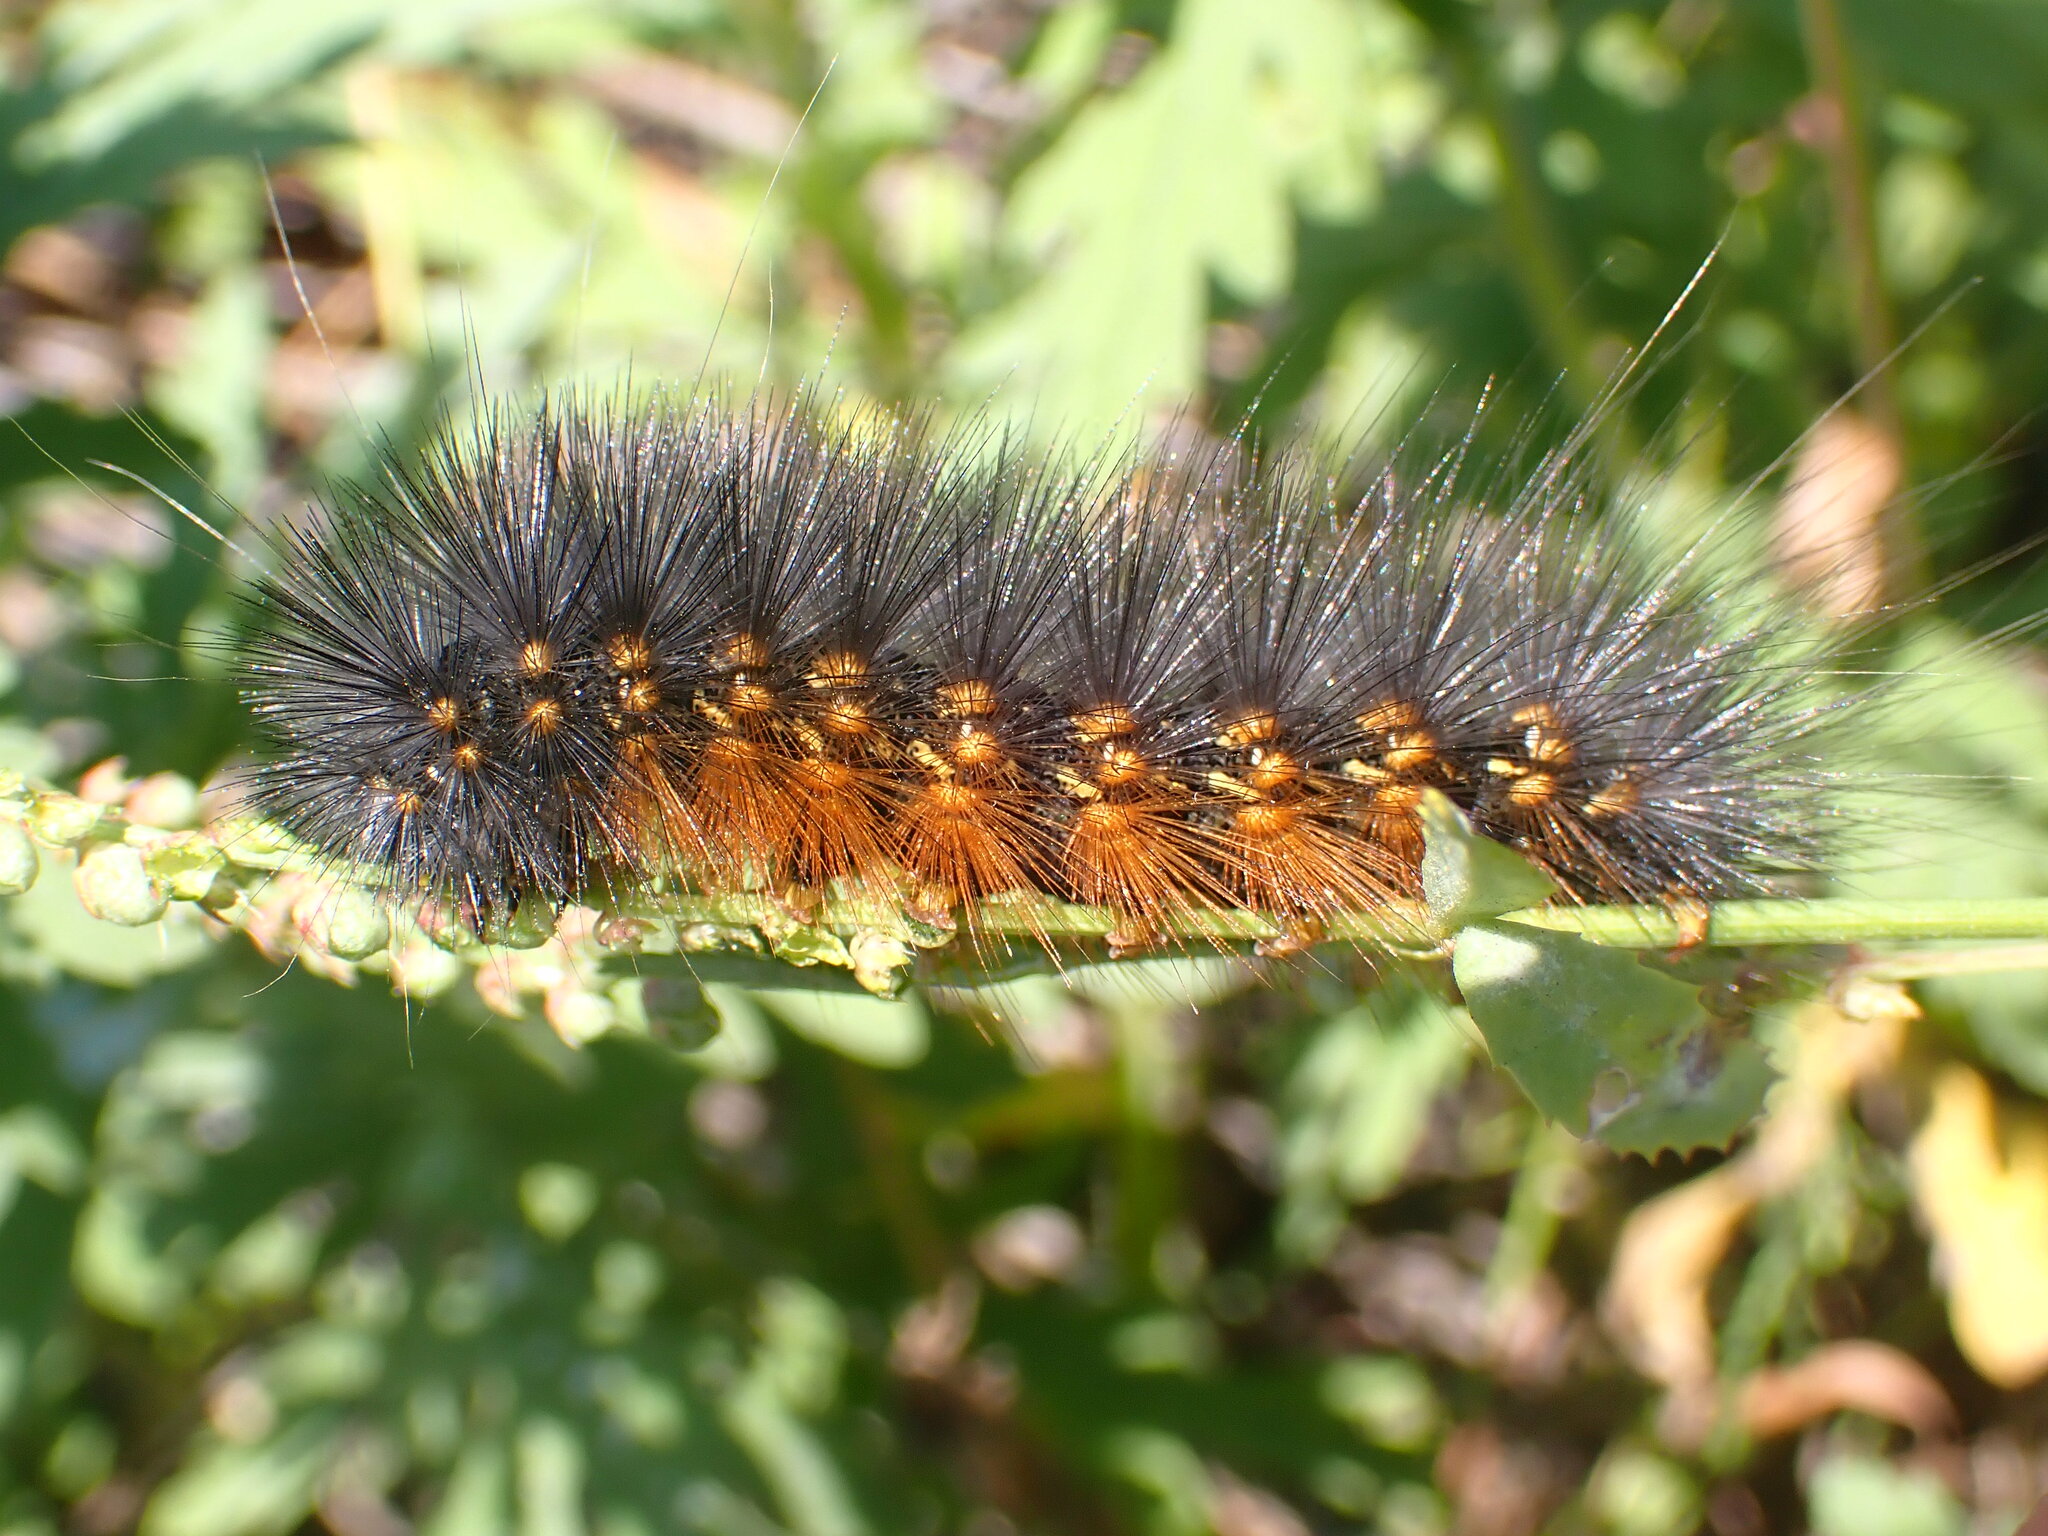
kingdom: Animalia
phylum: Arthropoda
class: Insecta
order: Lepidoptera
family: Erebidae
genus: Estigmene
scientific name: Estigmene acrea
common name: Salt marsh moth
